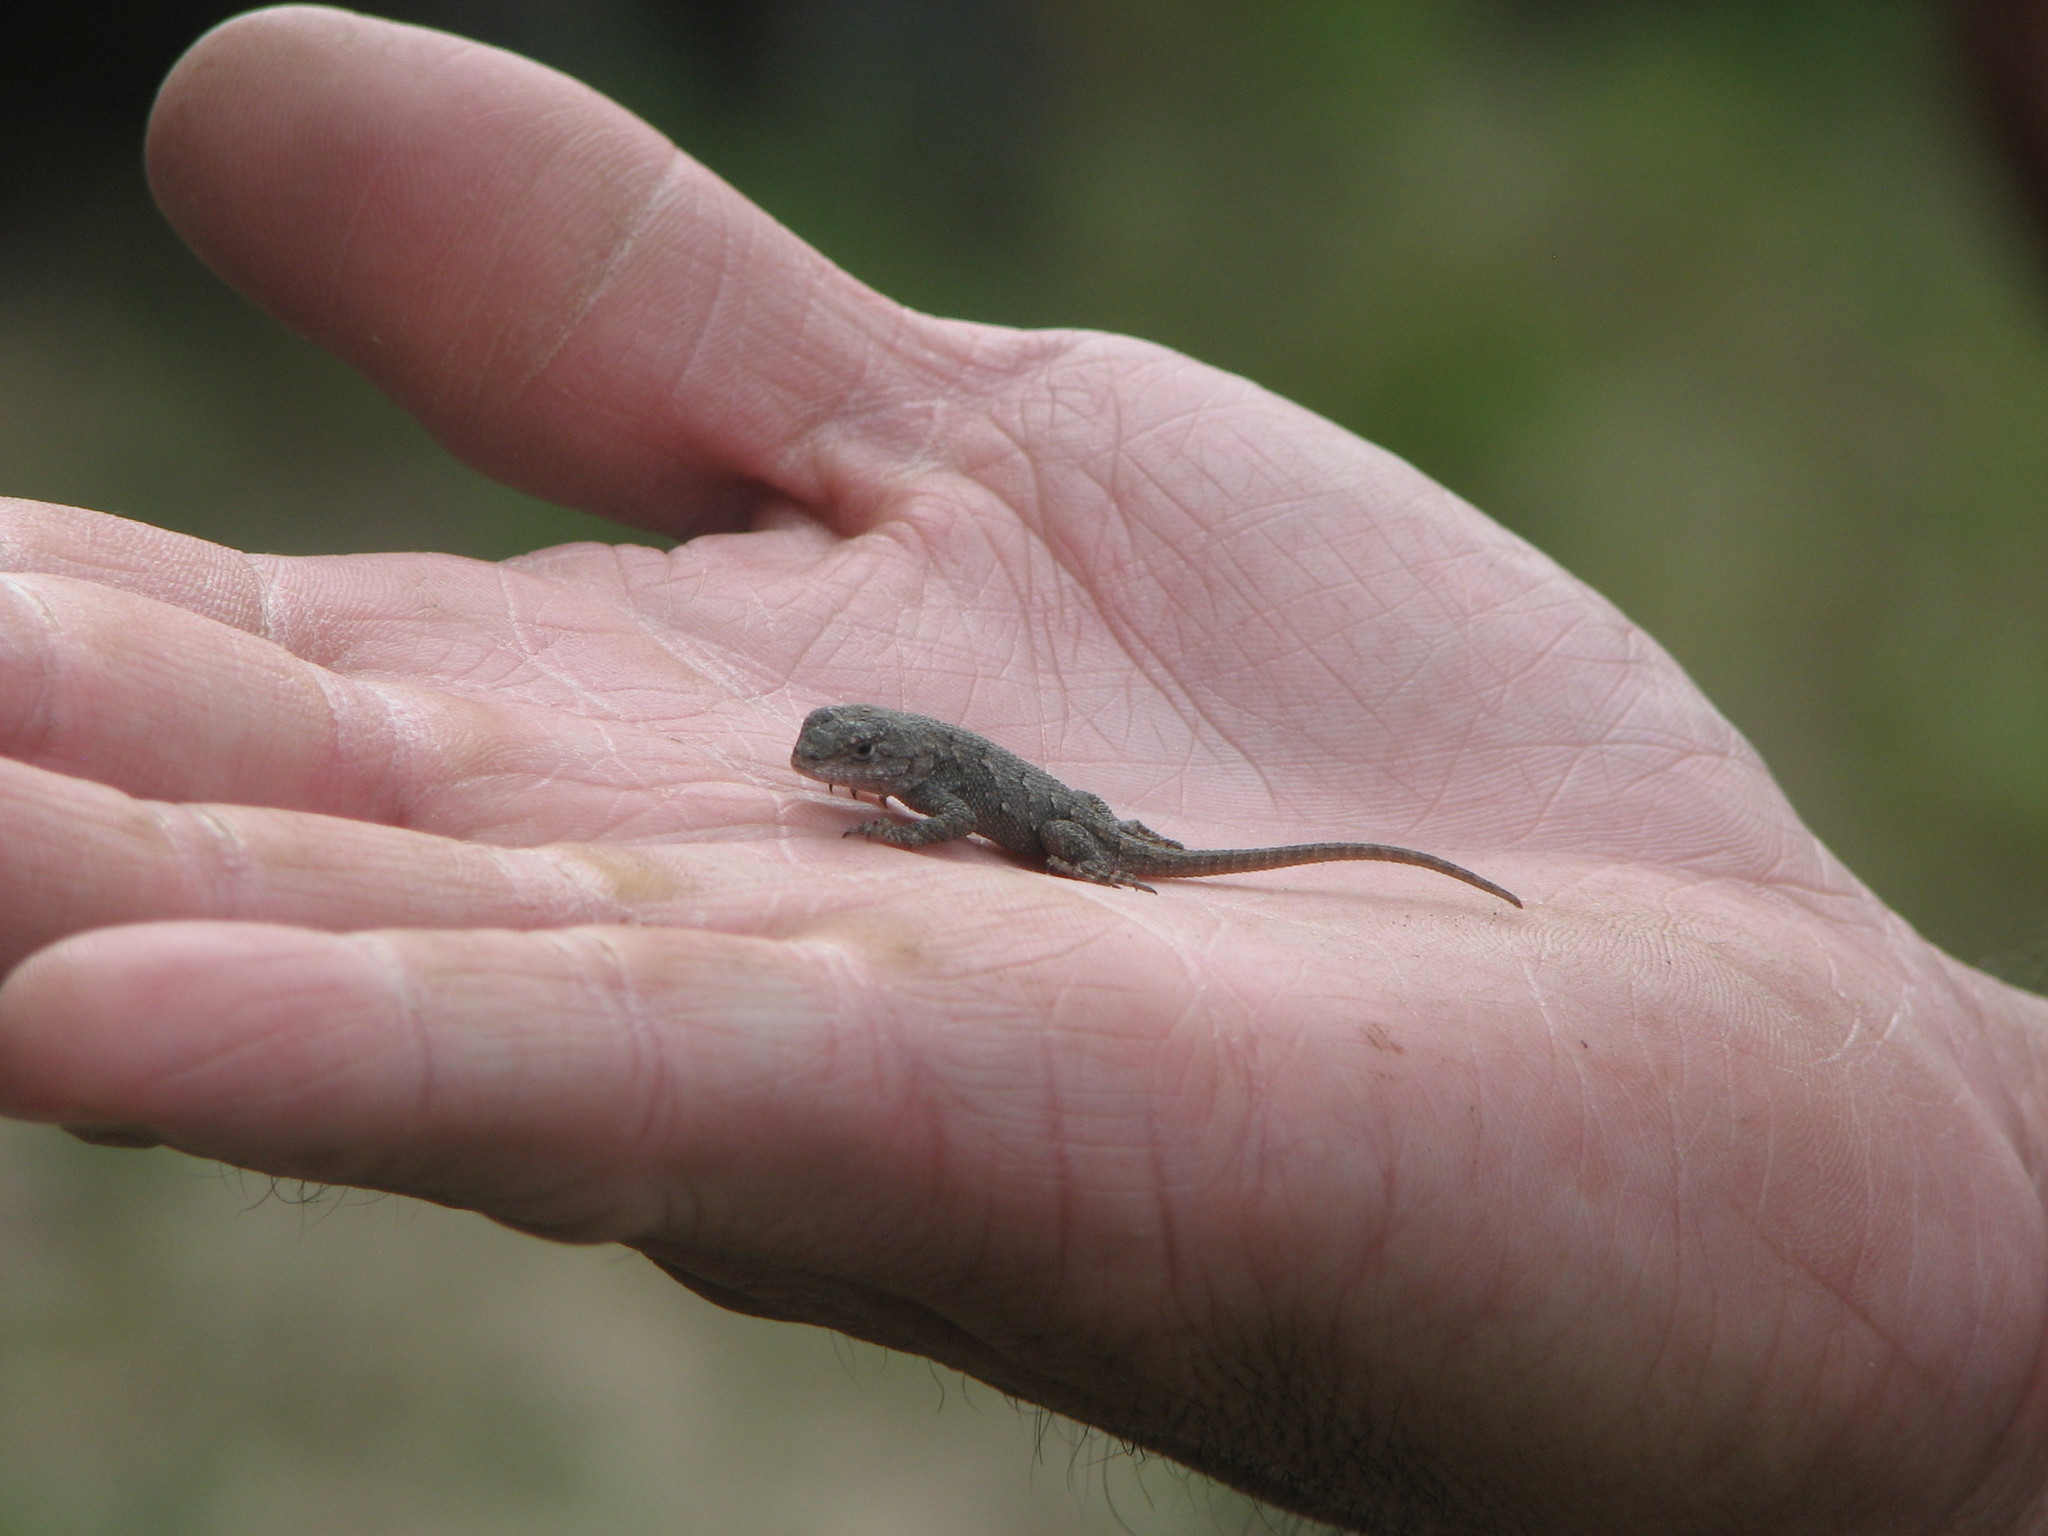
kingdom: Animalia
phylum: Chordata
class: Squamata
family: Phrynosomatidae
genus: Sceloporus
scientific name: Sceloporus undulatus
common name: Eastern fence lizard
